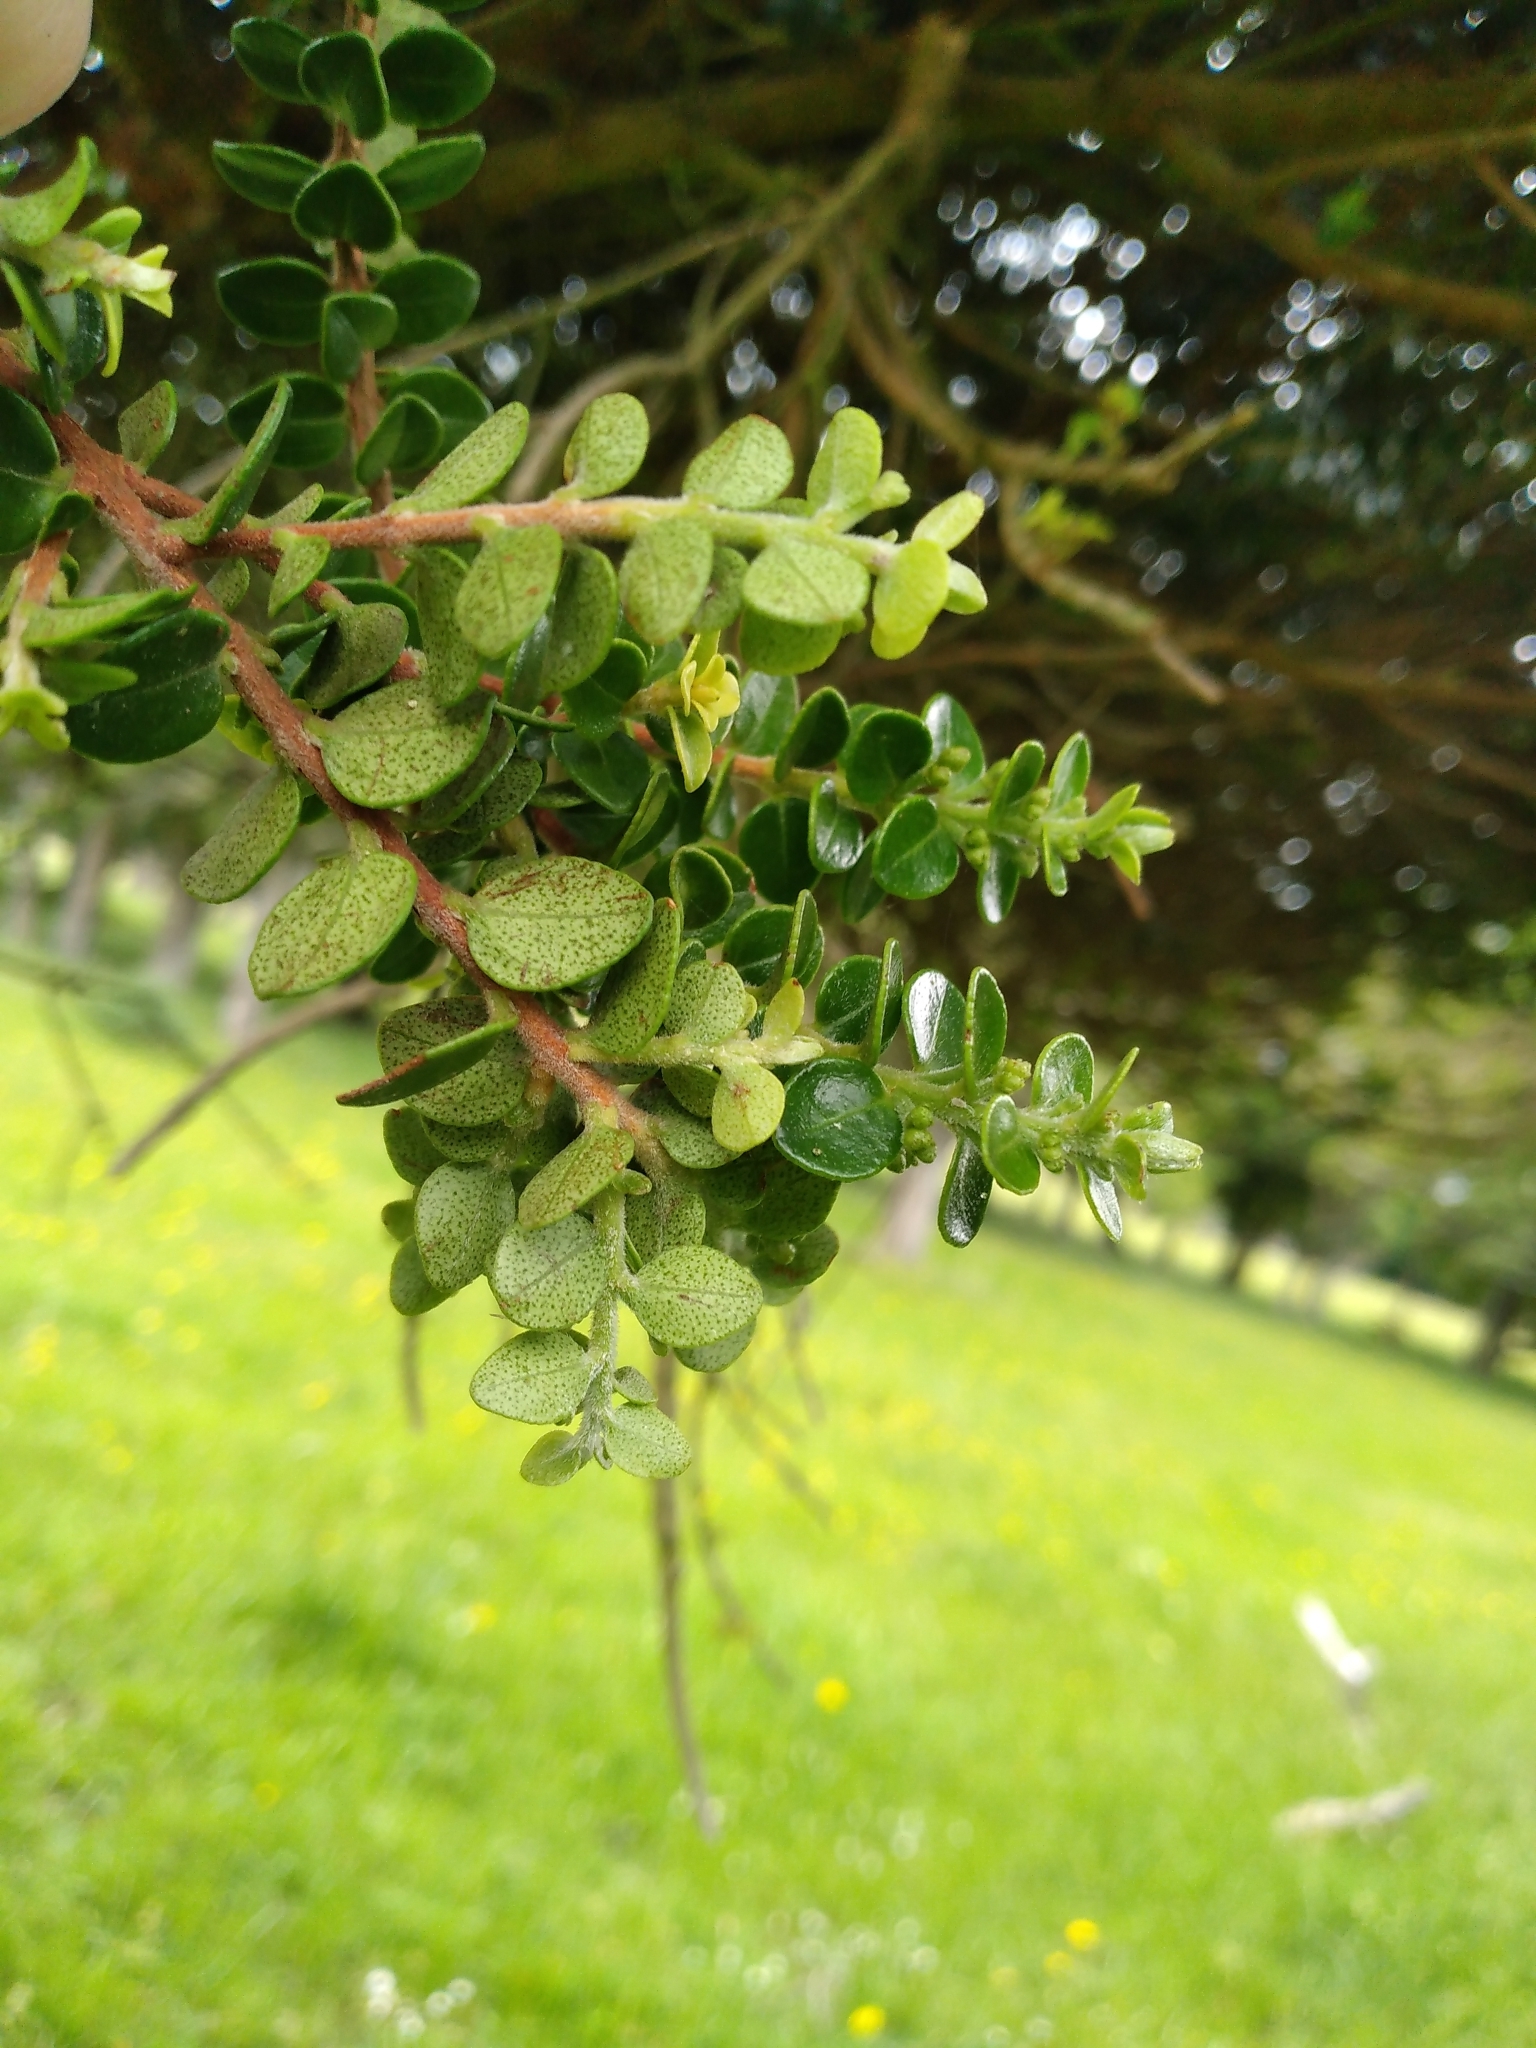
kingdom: Plantae
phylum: Tracheophyta
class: Magnoliopsida
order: Myrtales
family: Myrtaceae
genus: Metrosideros
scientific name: Metrosideros perforata
